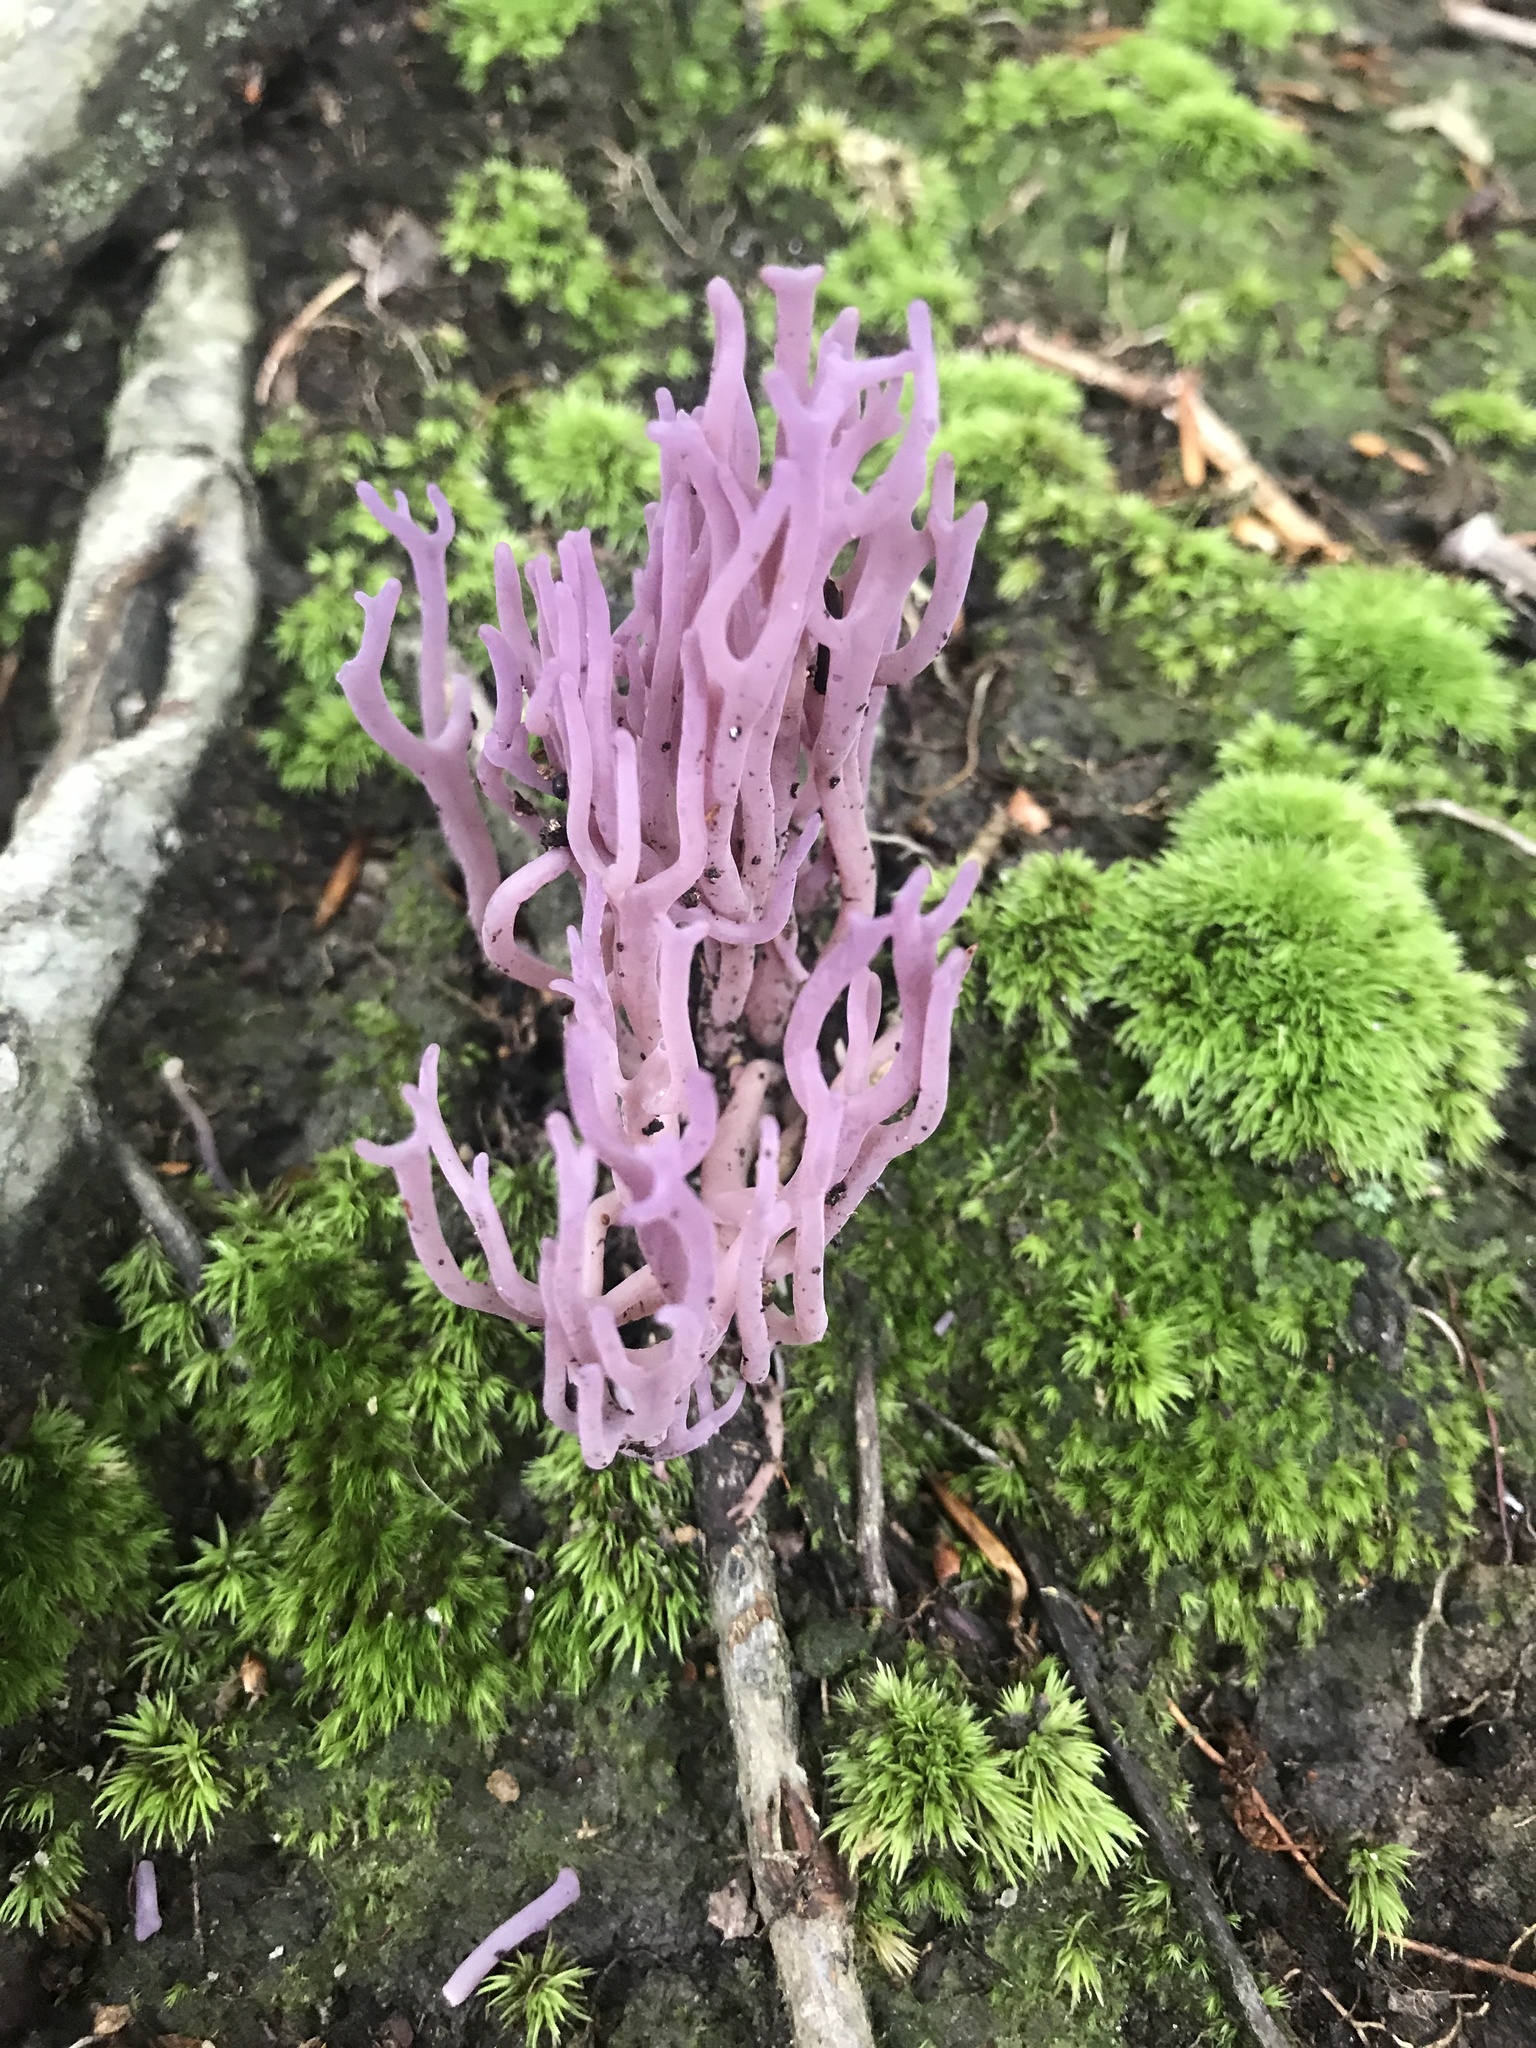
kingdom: Fungi
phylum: Basidiomycota
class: Agaricomycetes
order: Agaricales
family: Clavariaceae
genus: Clavaria
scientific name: Clavaria zollingeri
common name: Violet coral
